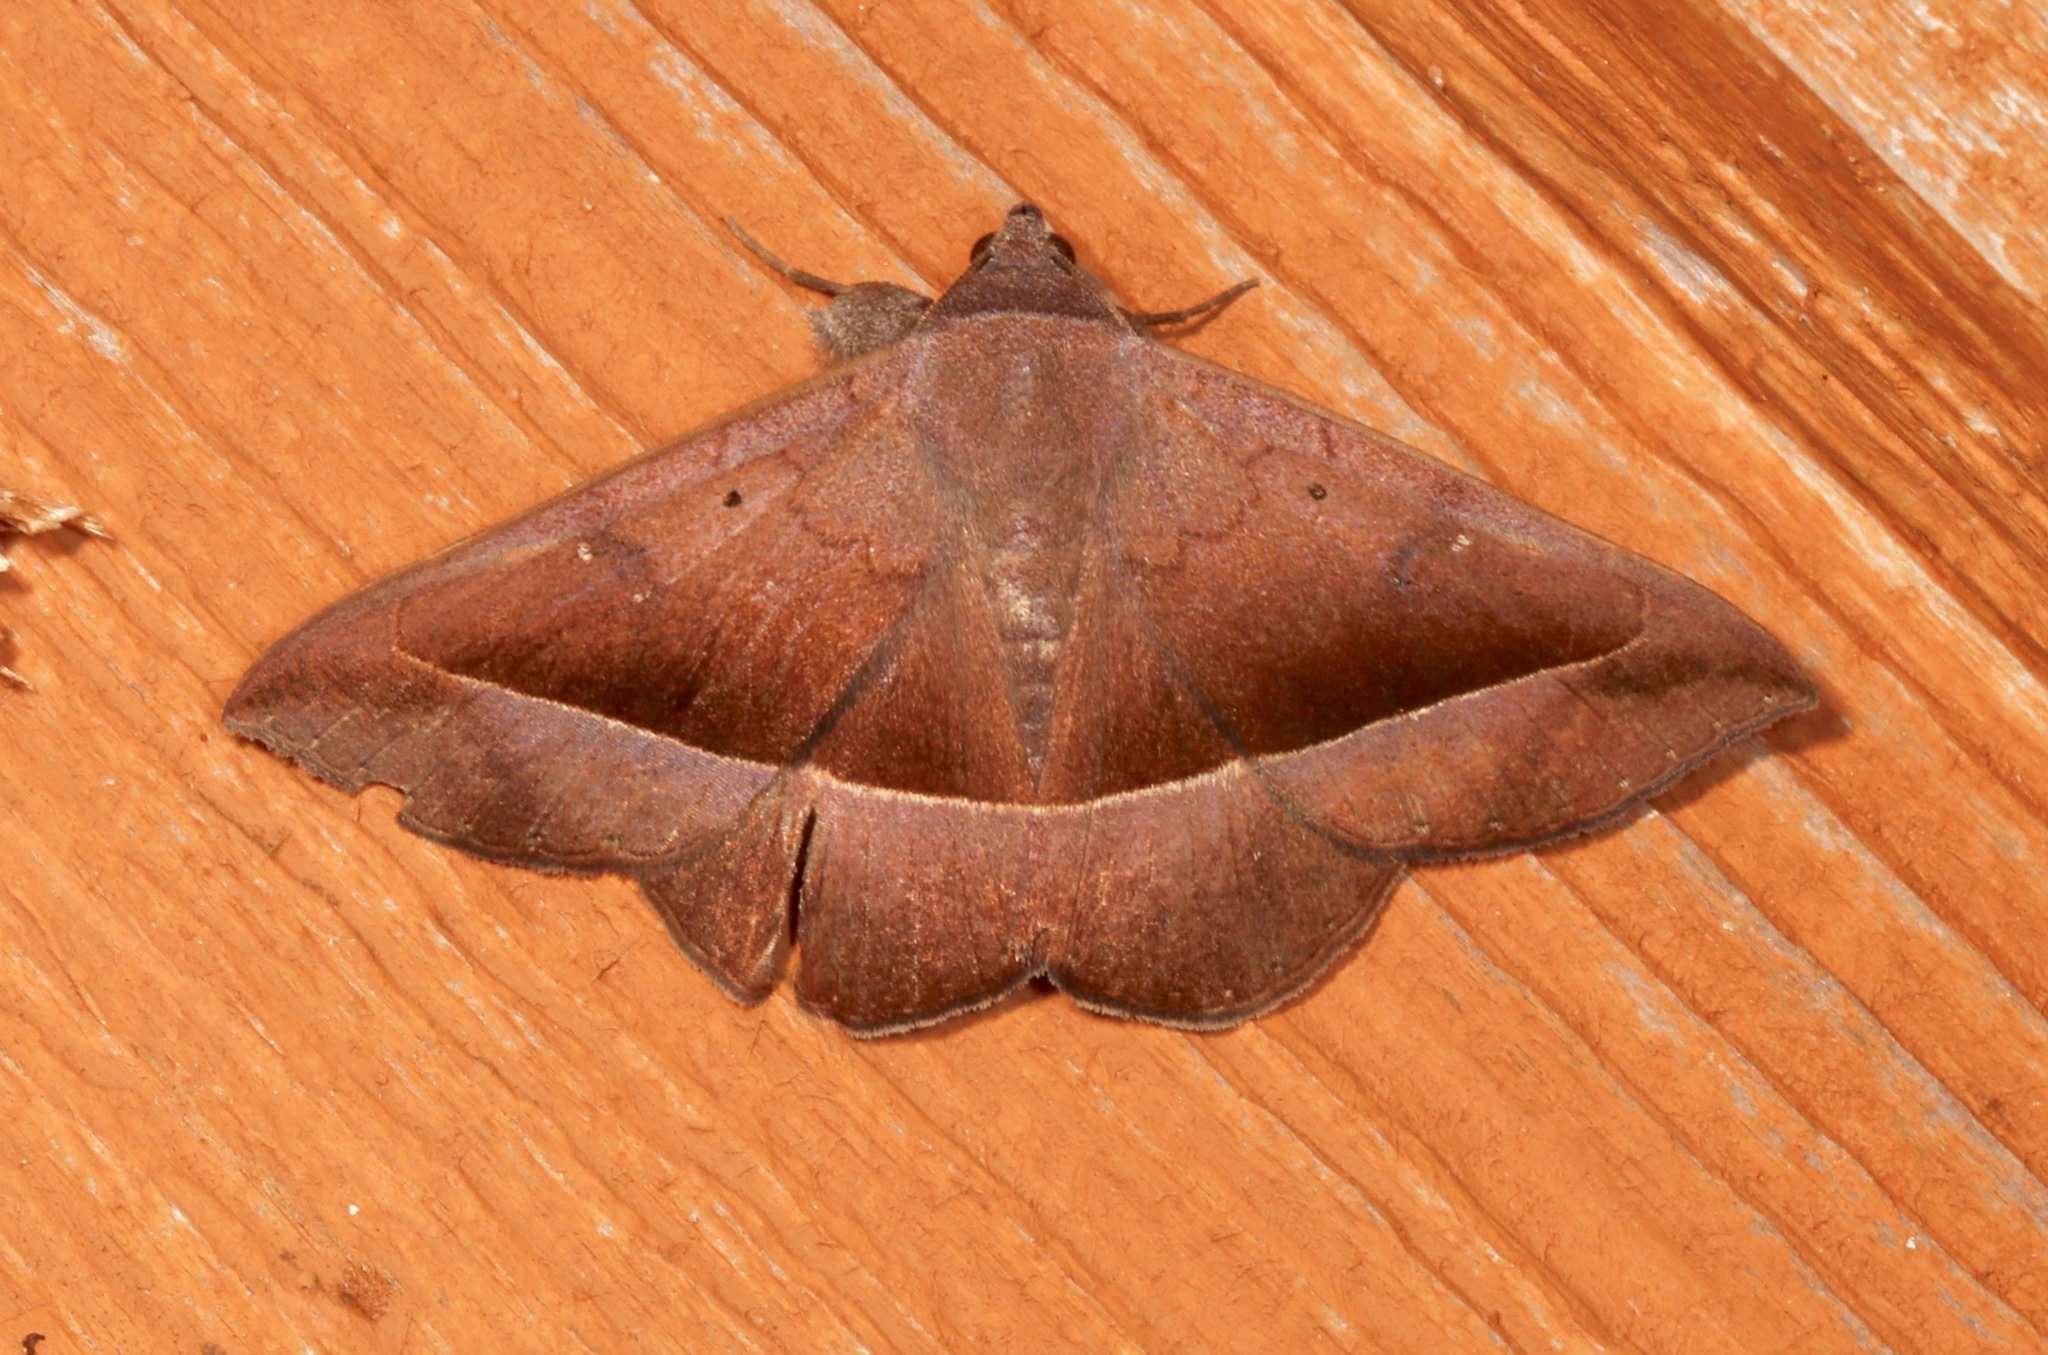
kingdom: Animalia
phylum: Arthropoda
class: Insecta
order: Lepidoptera
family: Erebidae
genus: Epidromia
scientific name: Epidromia rotundata
